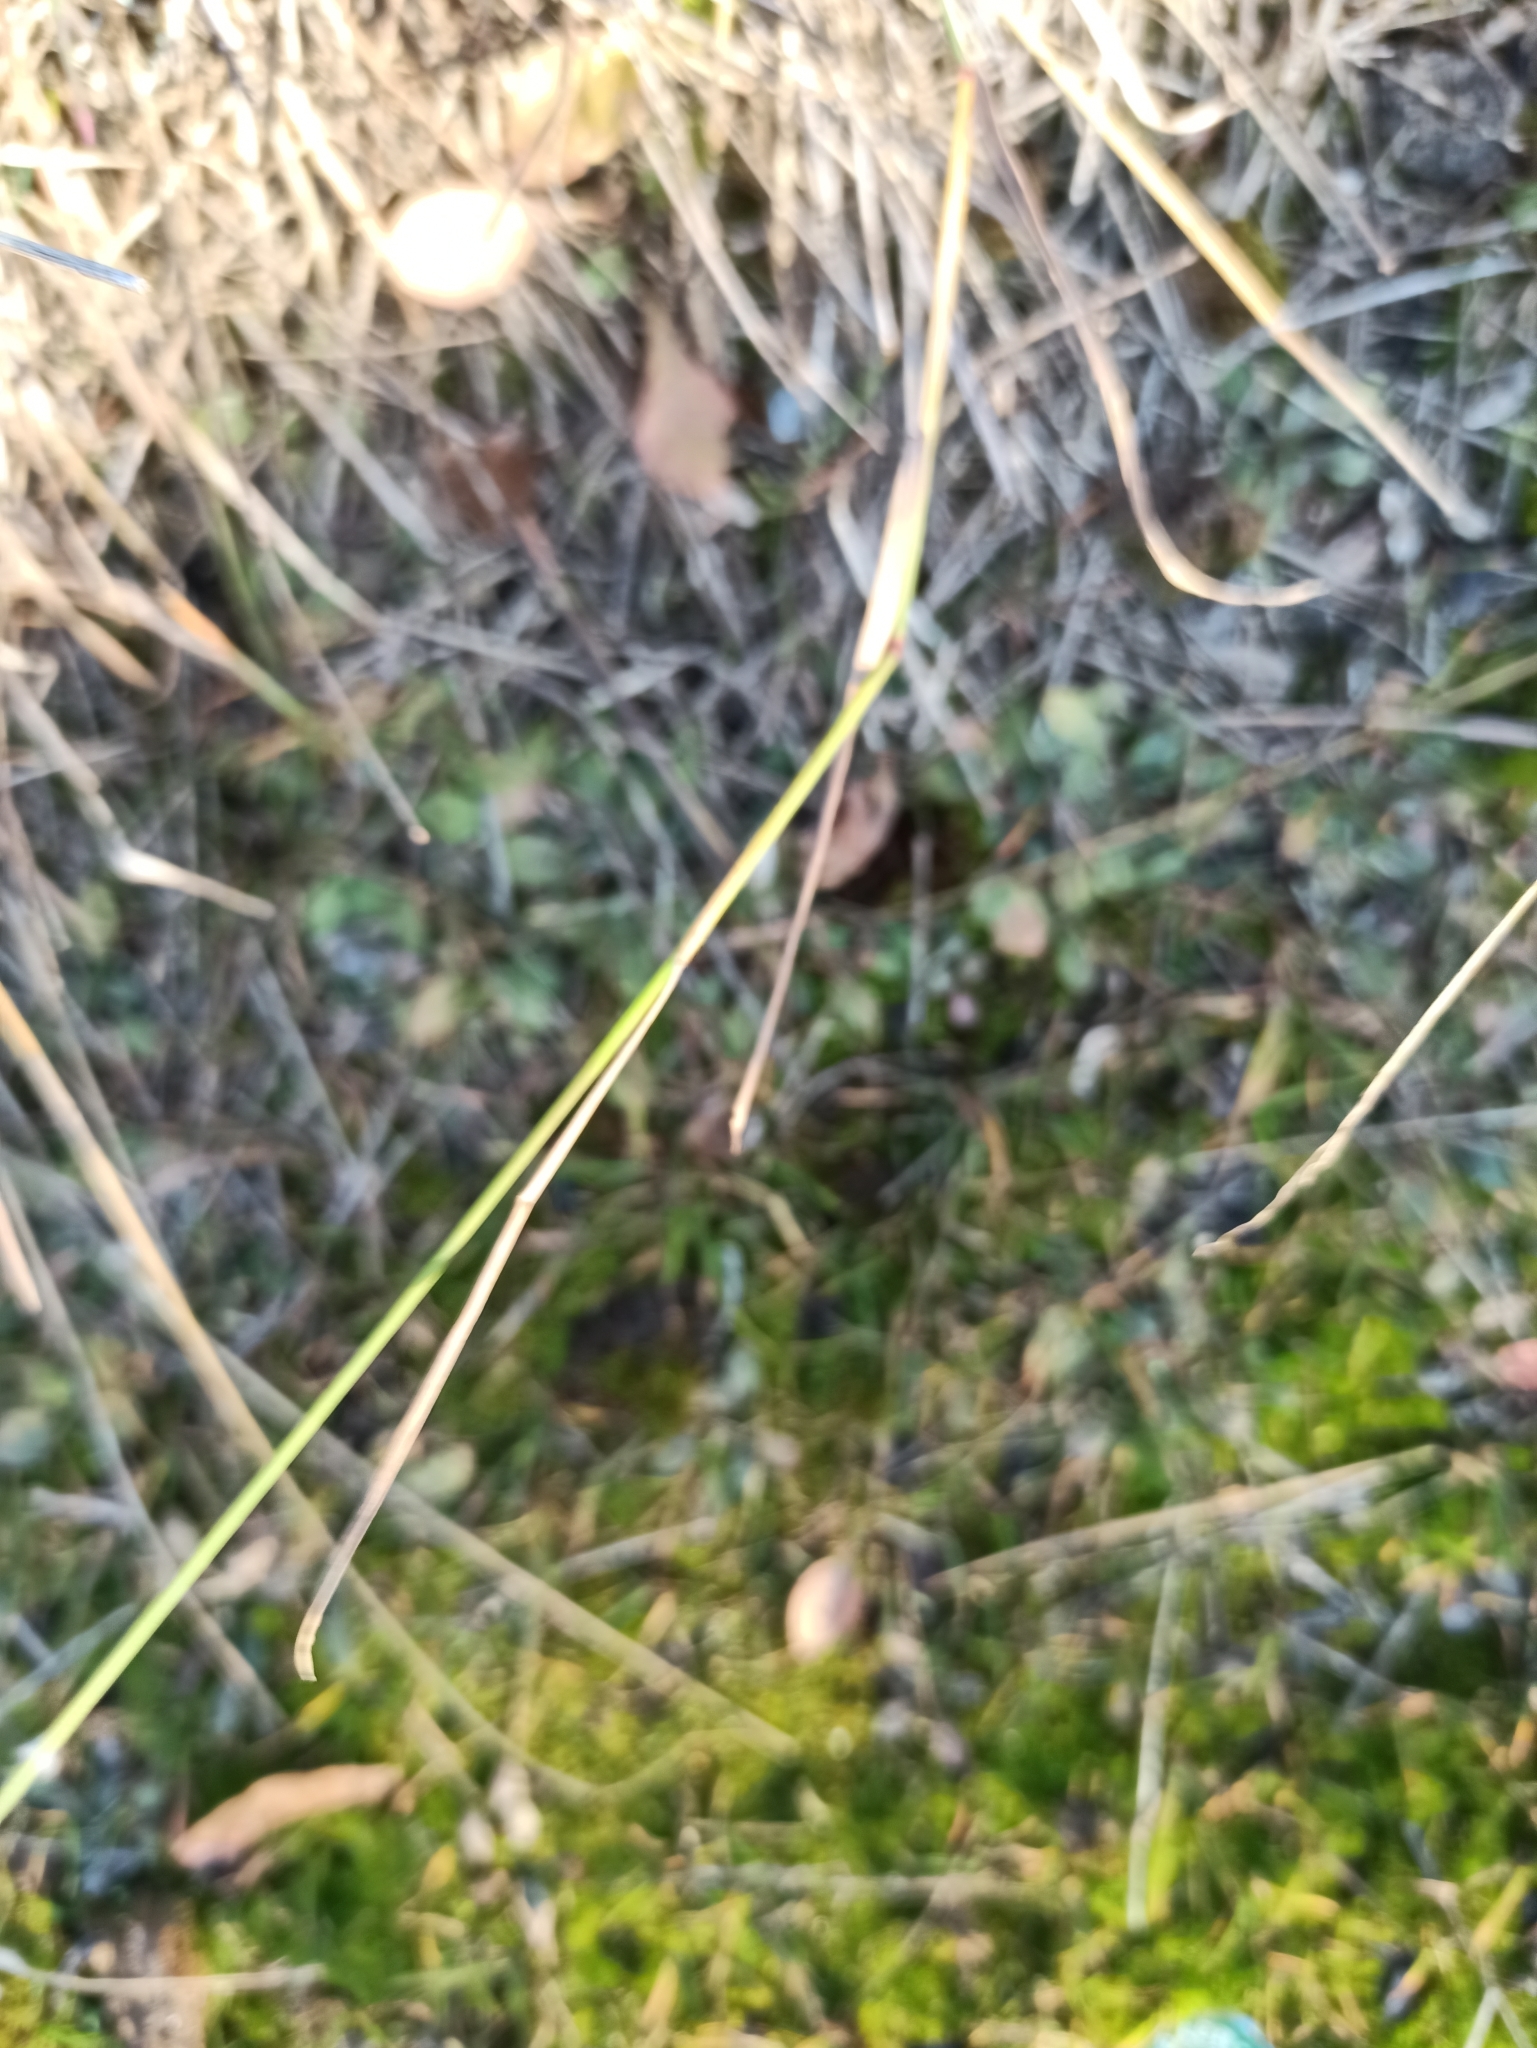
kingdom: Plantae
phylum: Tracheophyta
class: Liliopsida
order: Poales
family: Poaceae
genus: Poa
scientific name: Poa compressa
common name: Canada bluegrass
